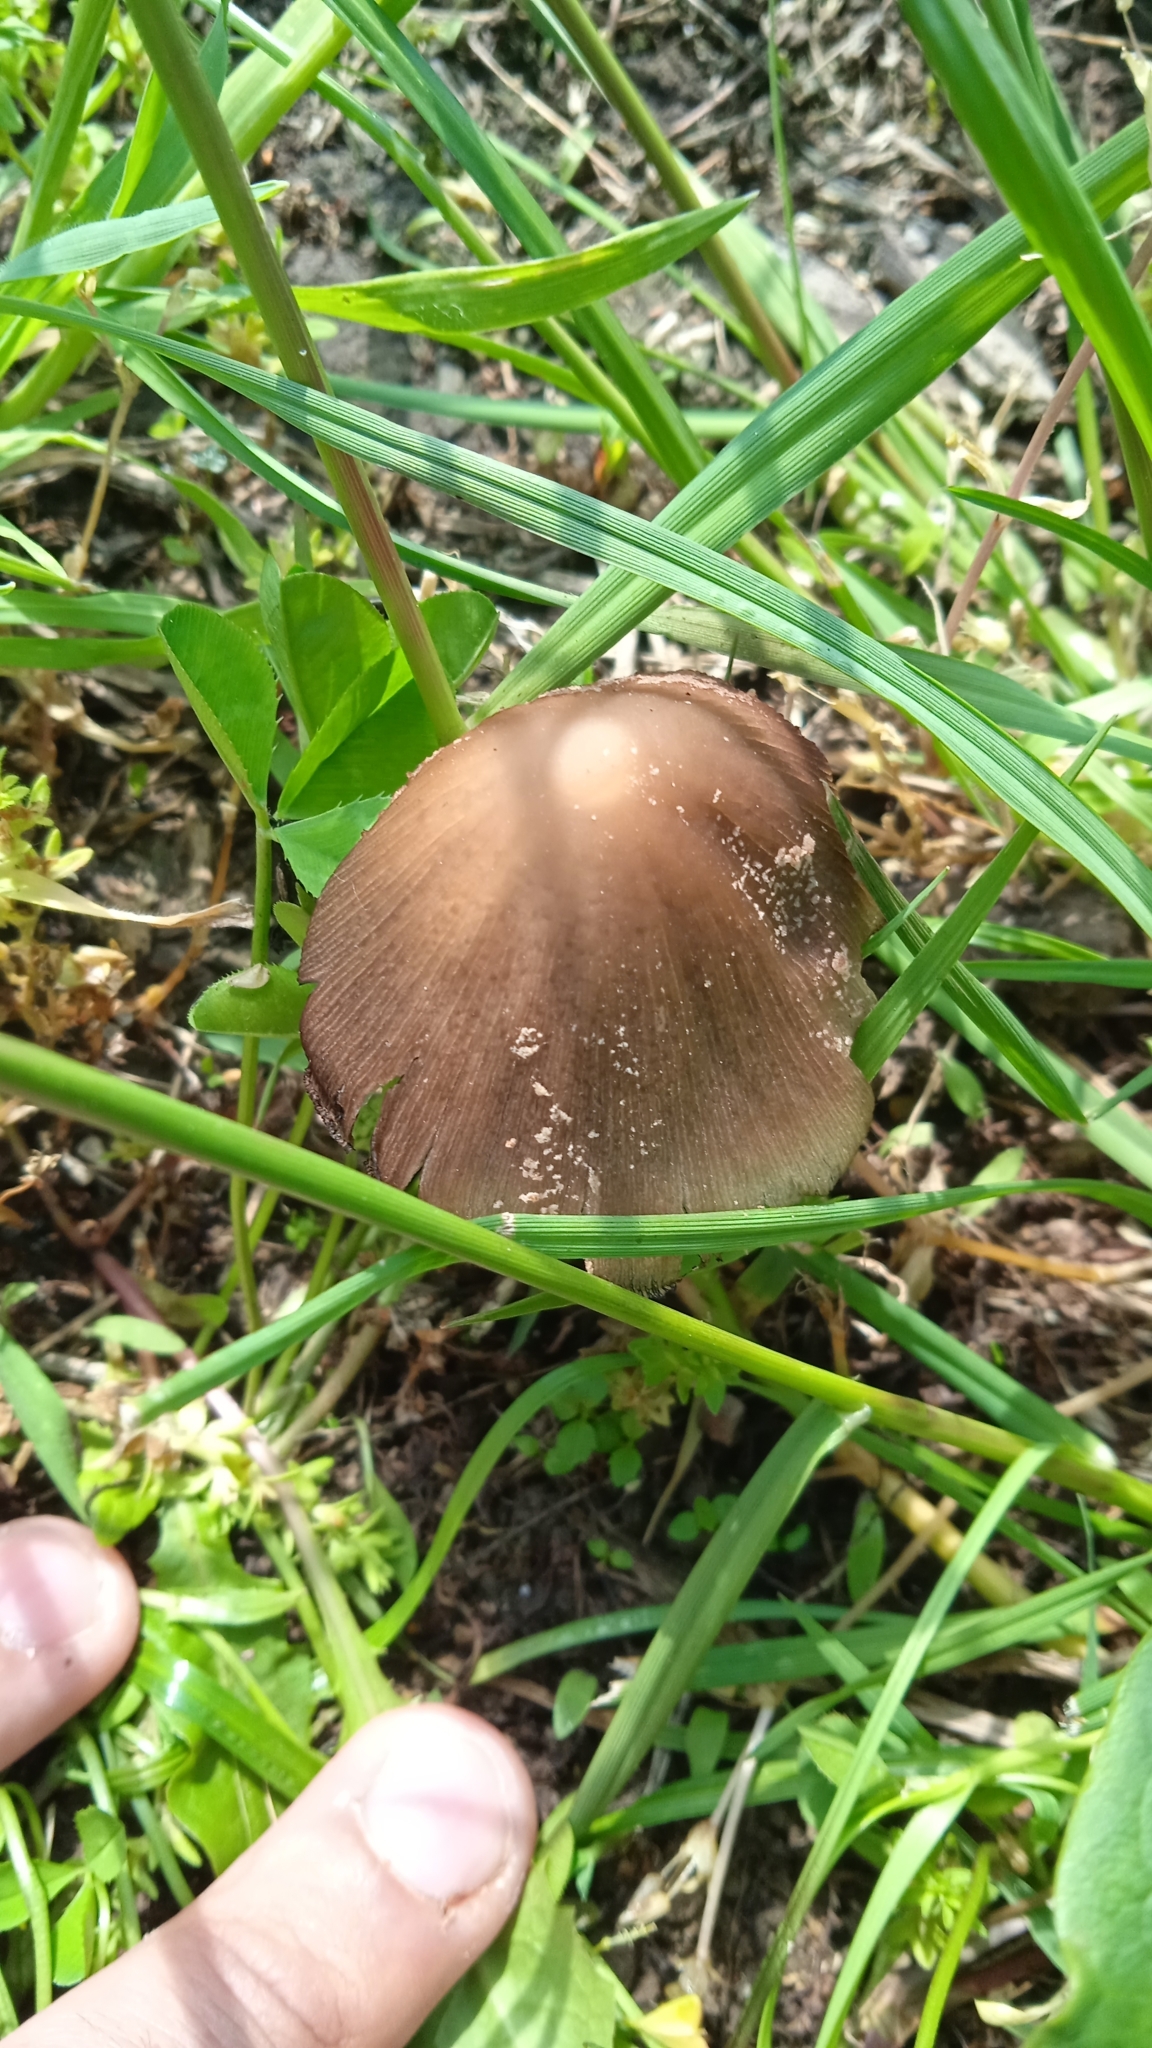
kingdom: Fungi
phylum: Basidiomycota
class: Agaricomycetes
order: Agaricales
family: Psathyrellaceae
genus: Coprinellus
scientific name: Coprinellus micaceus
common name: Glistening ink-cap
